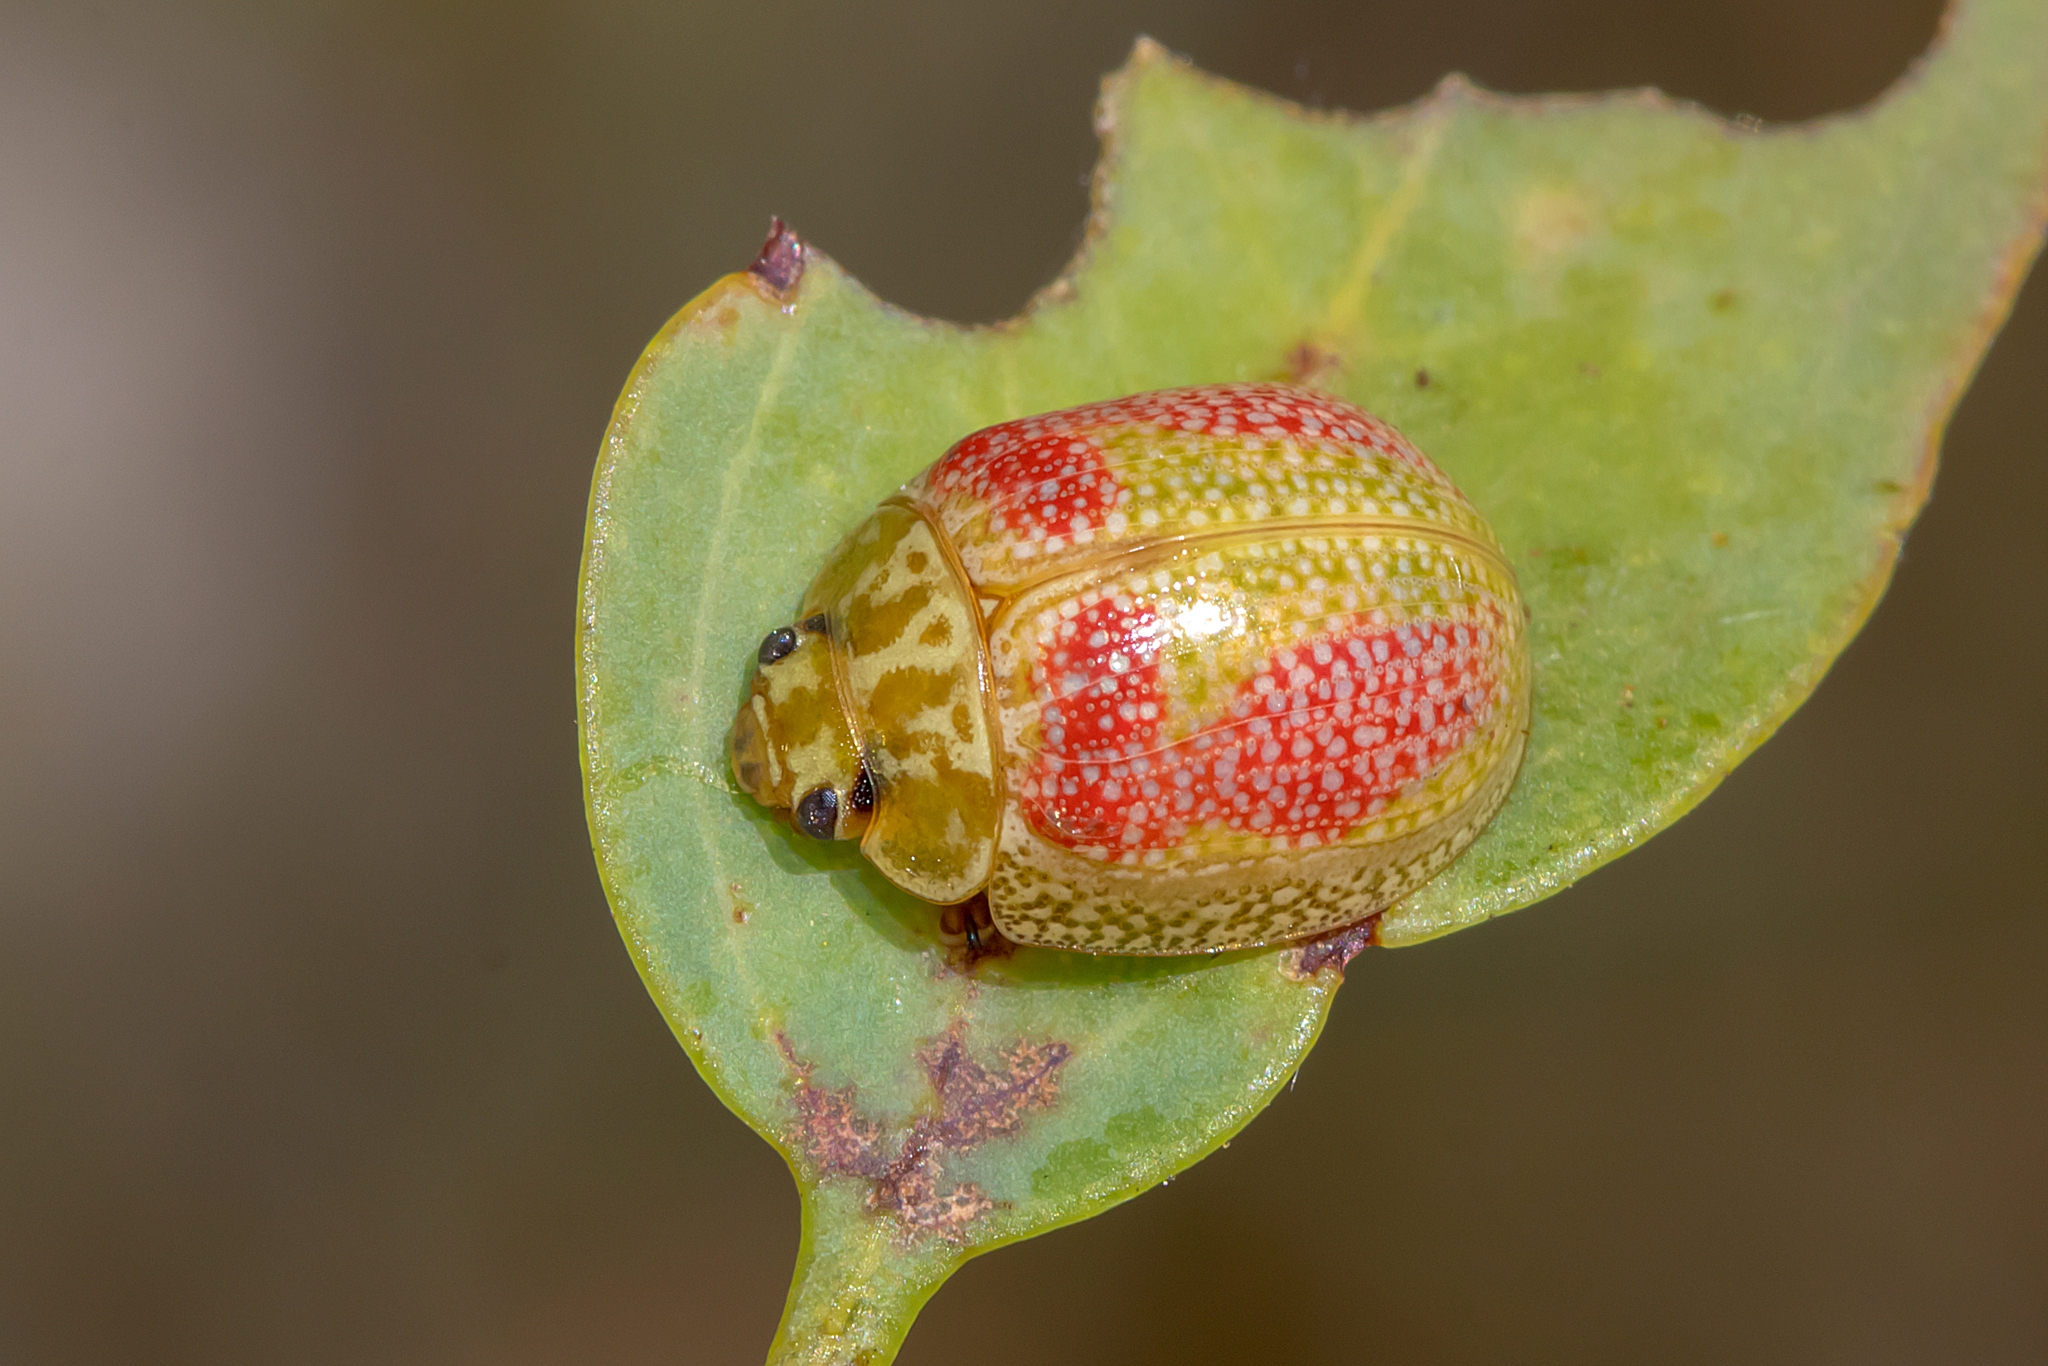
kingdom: Animalia
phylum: Arthropoda
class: Insecta
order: Coleoptera
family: Chrysomelidae
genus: Paropsisterna
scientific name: Paropsisterna
